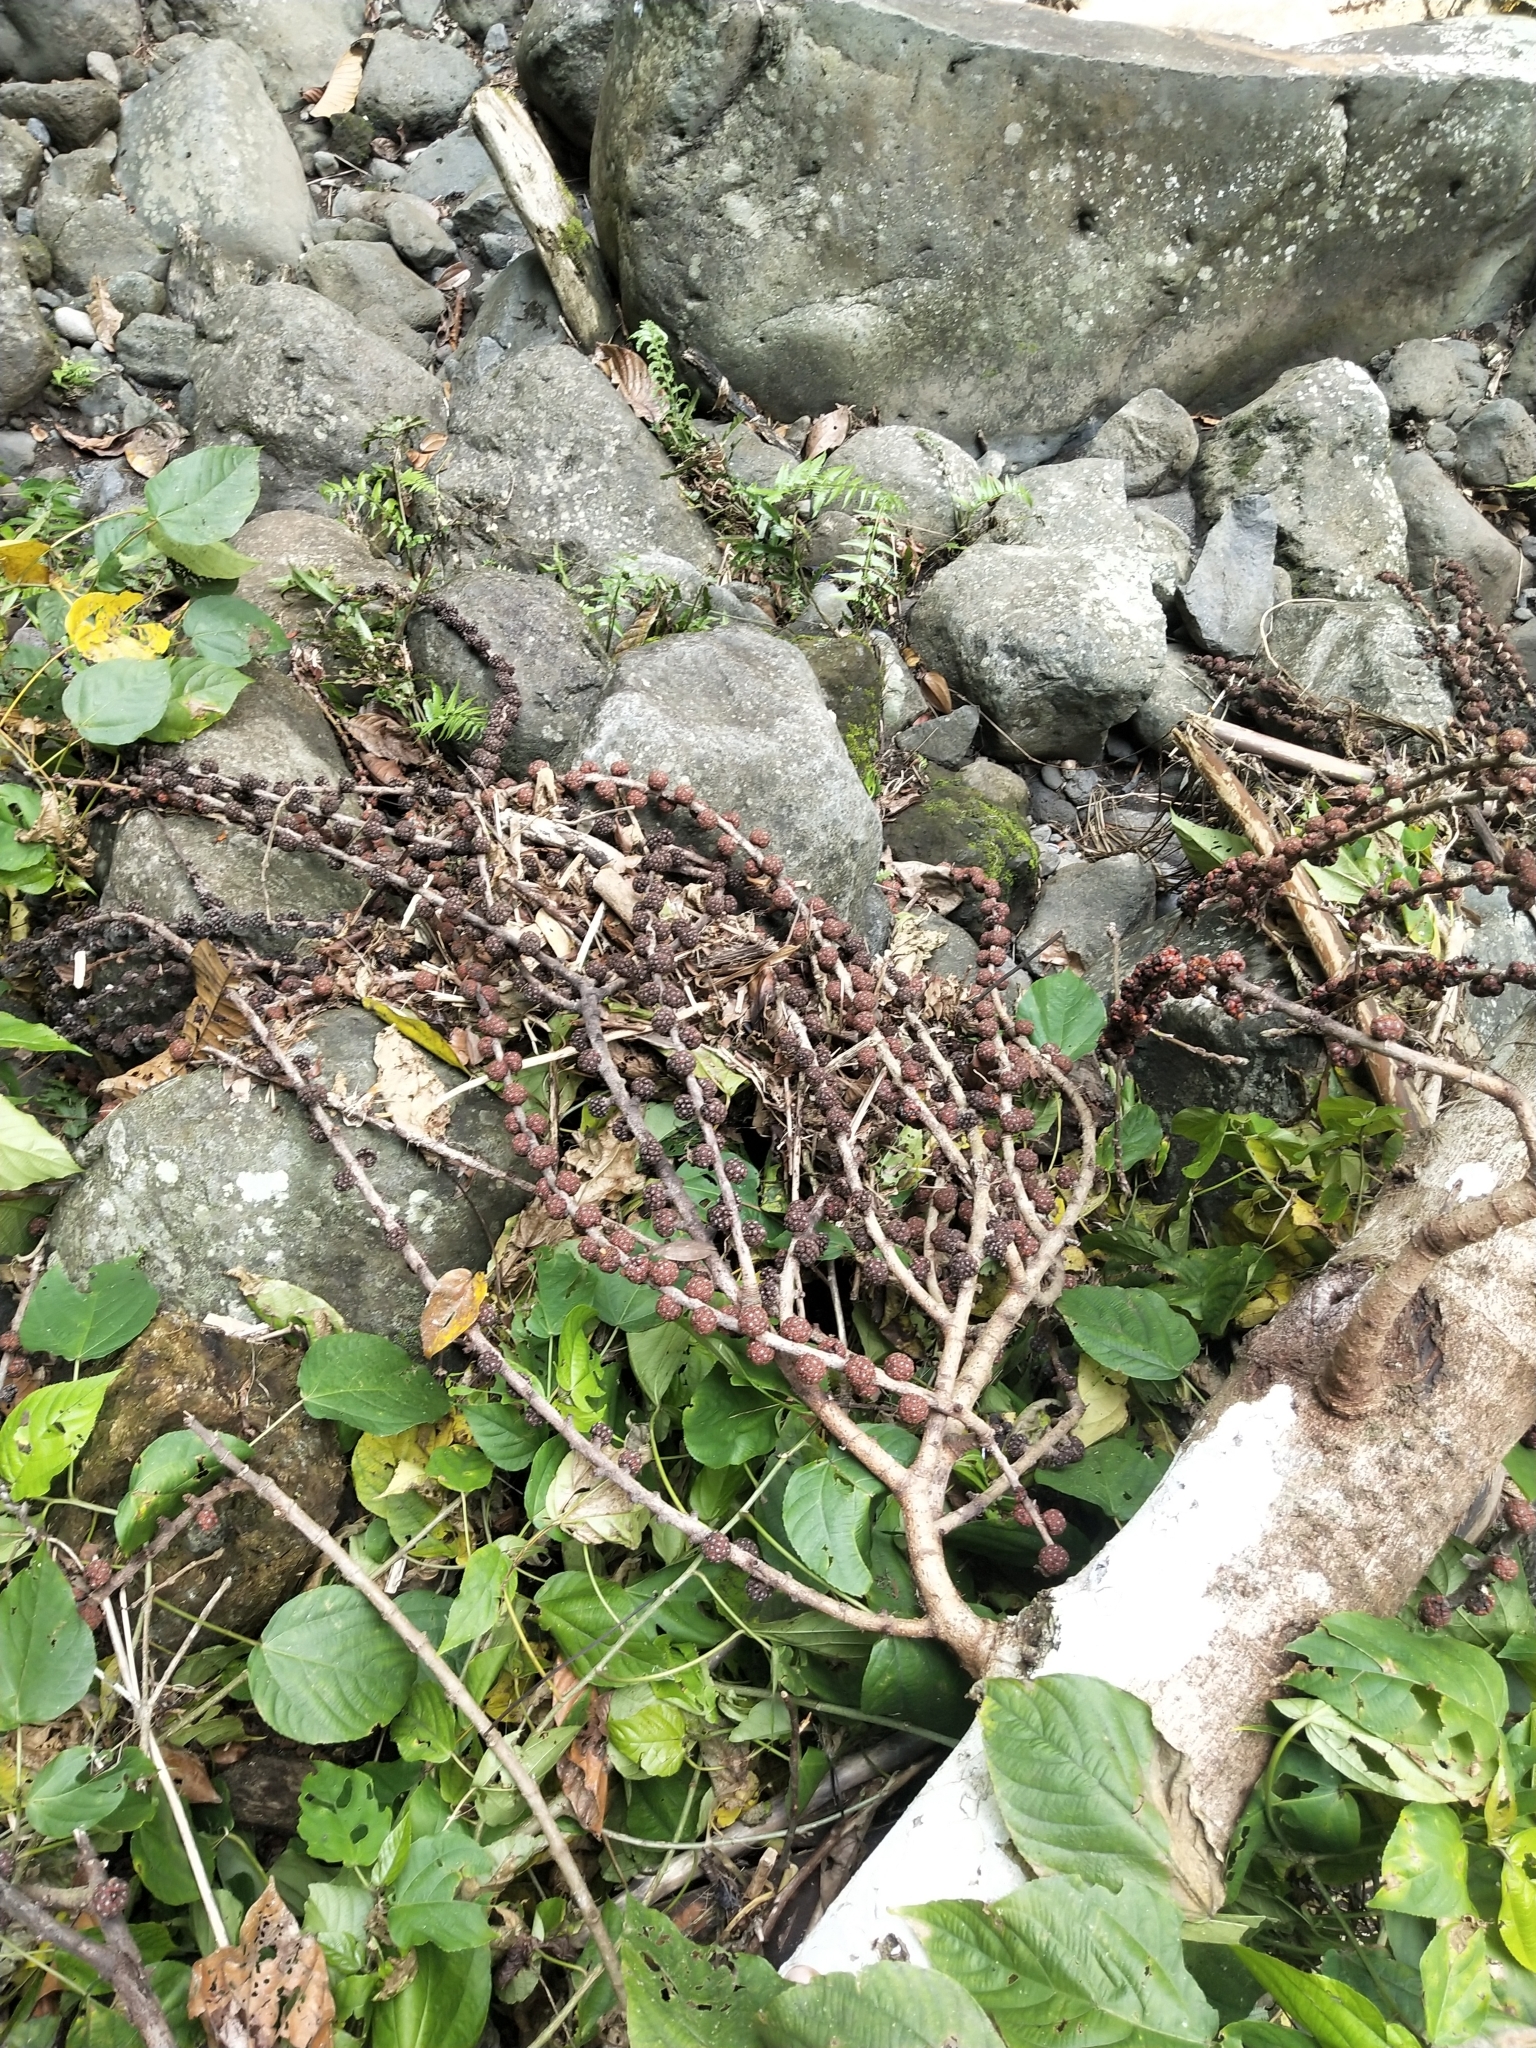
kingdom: Plantae
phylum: Tracheophyta
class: Magnoliopsida
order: Rosales
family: Moraceae
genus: Ficus
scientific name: Ficus minahassae
